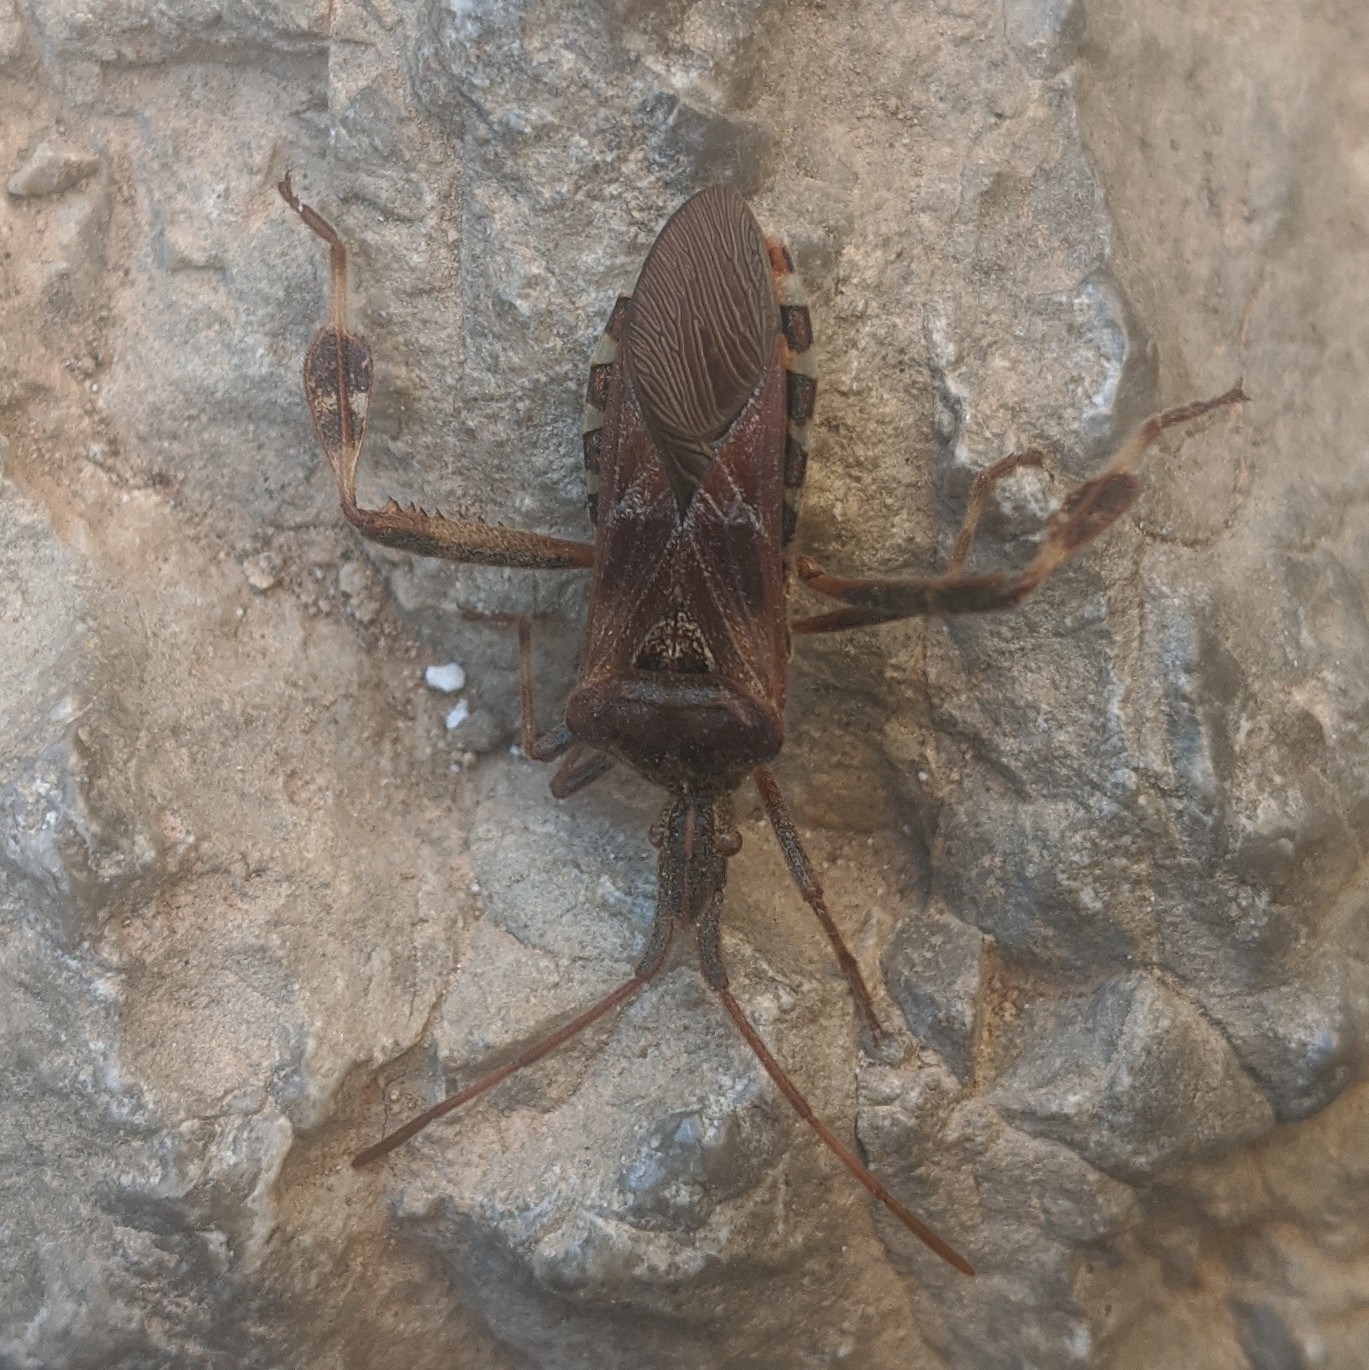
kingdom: Animalia
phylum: Arthropoda
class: Insecta
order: Hemiptera
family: Coreidae
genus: Leptoglossus
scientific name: Leptoglossus occidentalis
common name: Western conifer-seed bug
